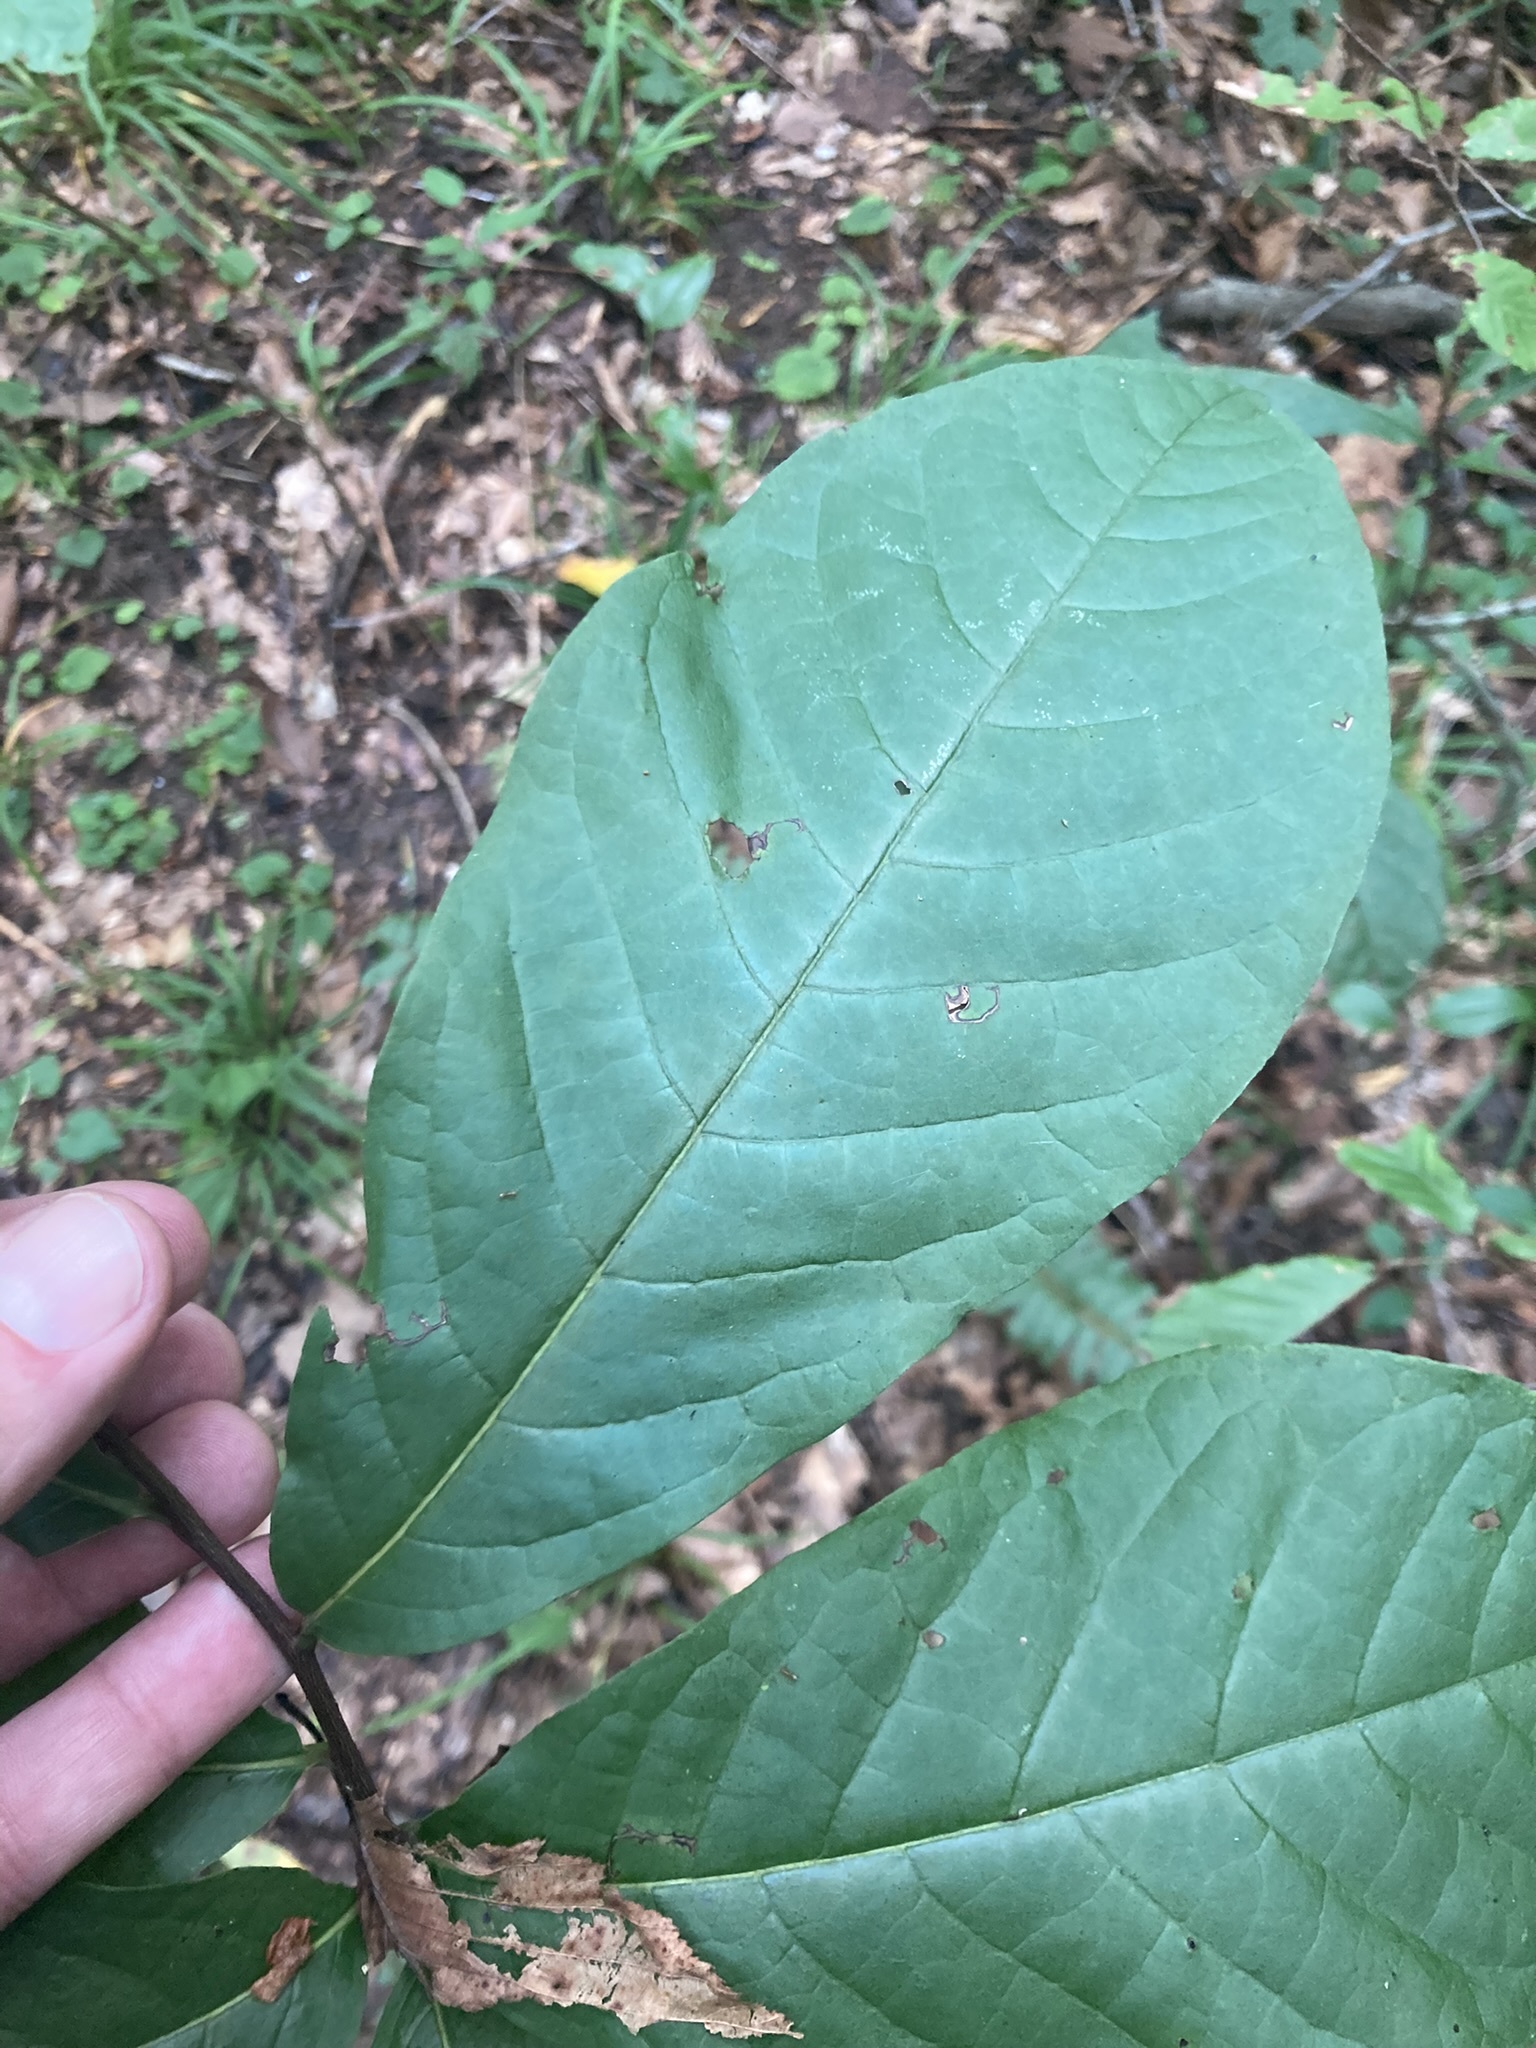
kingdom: Plantae
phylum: Tracheophyta
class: Magnoliopsida
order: Magnoliales
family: Annonaceae
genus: Asimina
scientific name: Asimina triloba
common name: Dog-banana
